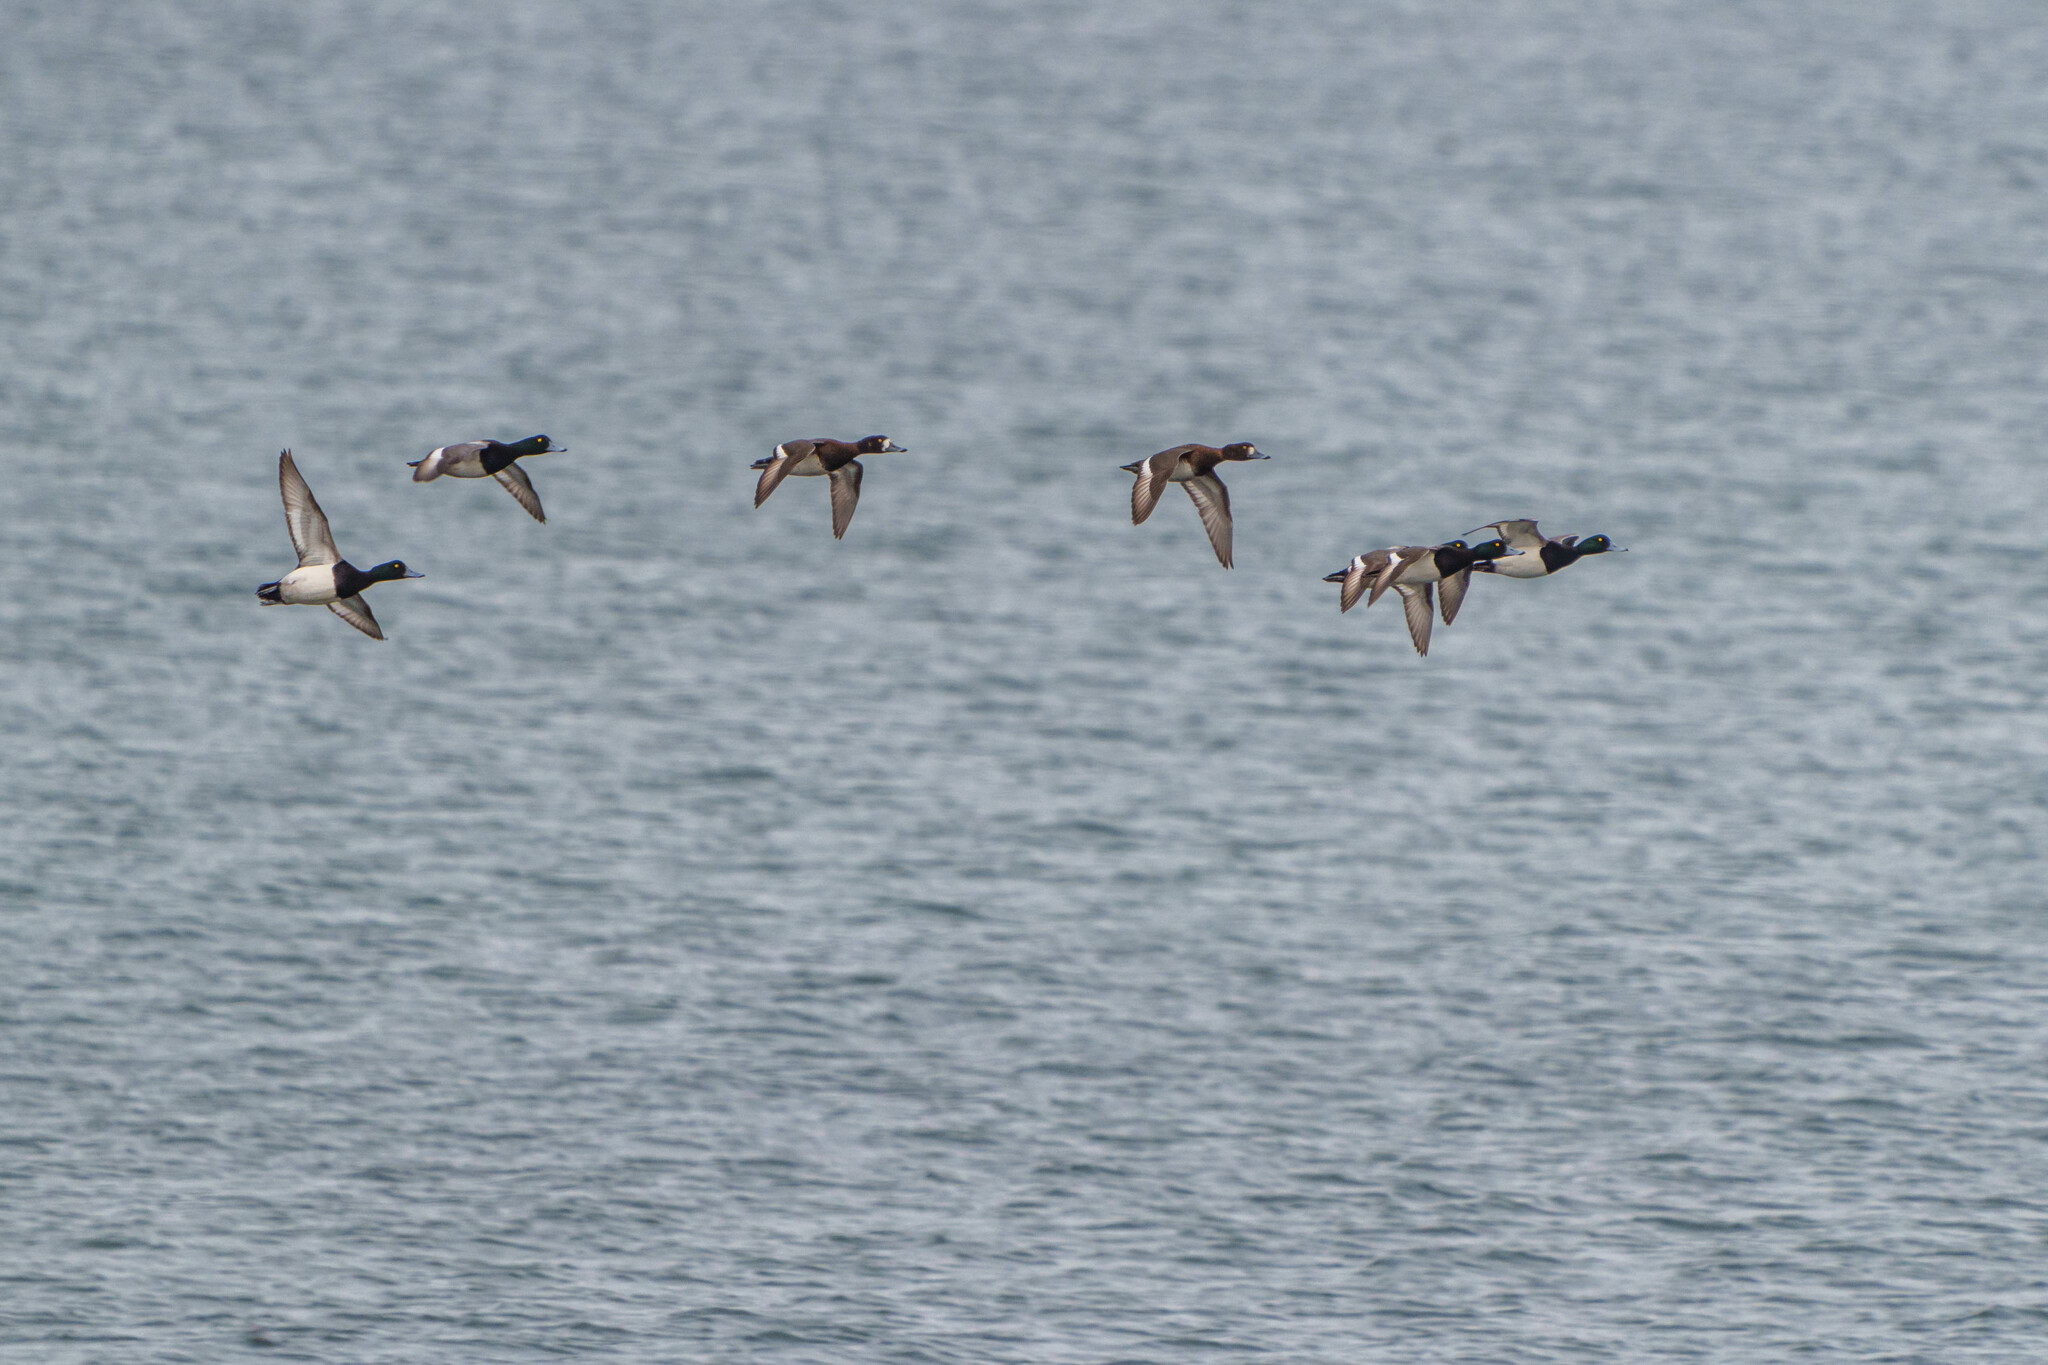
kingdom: Animalia
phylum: Chordata
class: Aves
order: Anseriformes
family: Anatidae
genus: Aythya
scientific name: Aythya marila
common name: Greater scaup
